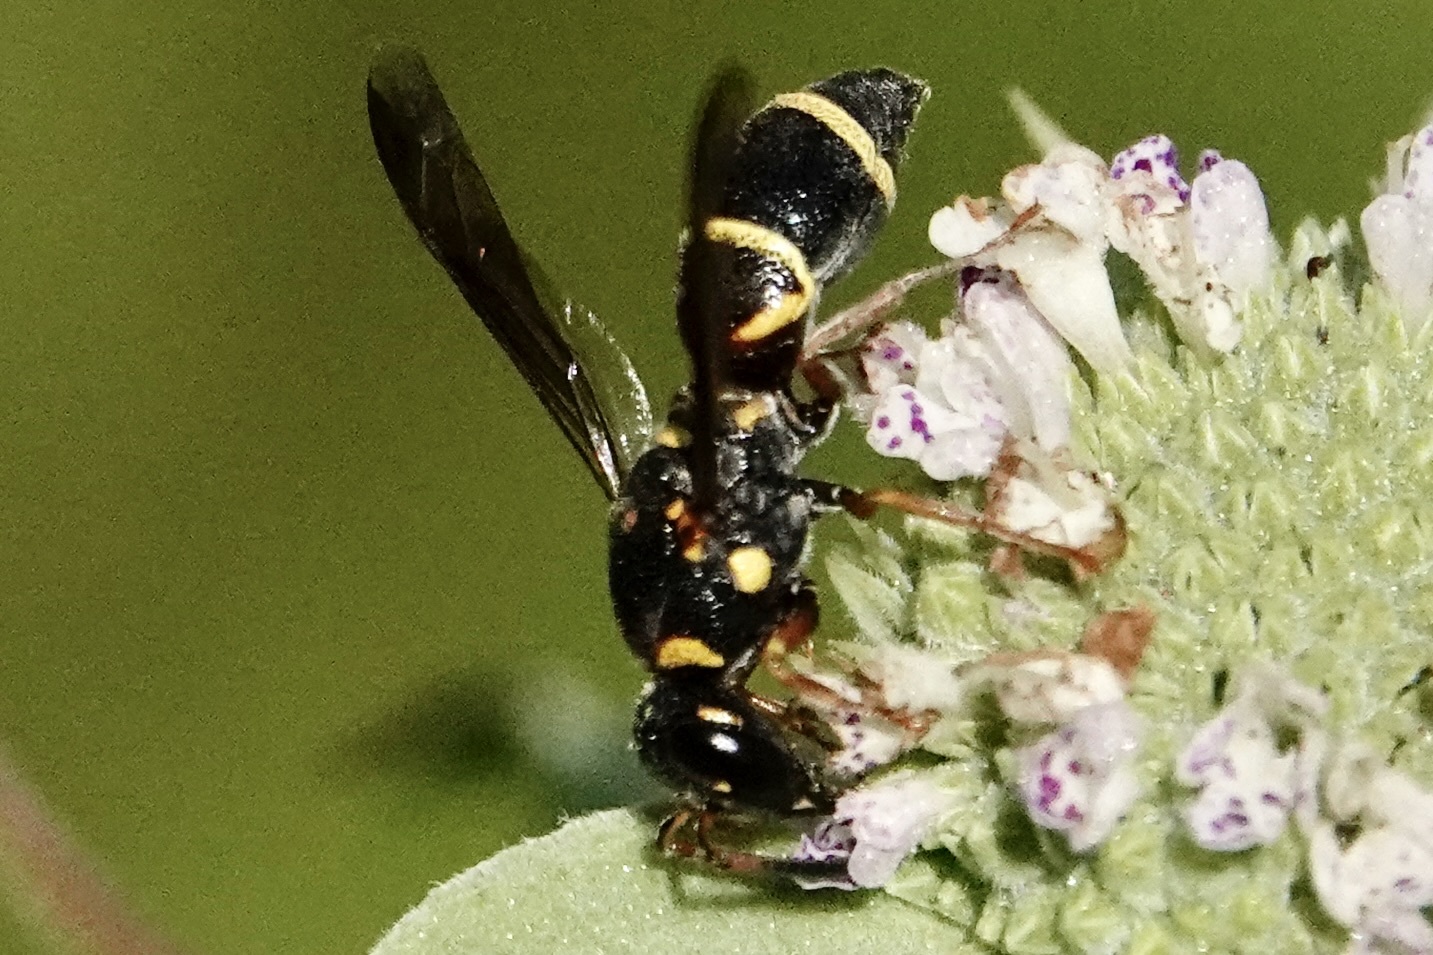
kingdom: Animalia
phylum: Arthropoda
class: Insecta
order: Hymenoptera
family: Eumenidae
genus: Parancistrocerus
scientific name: Parancistrocerus fulvipes
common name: Potter wasp
